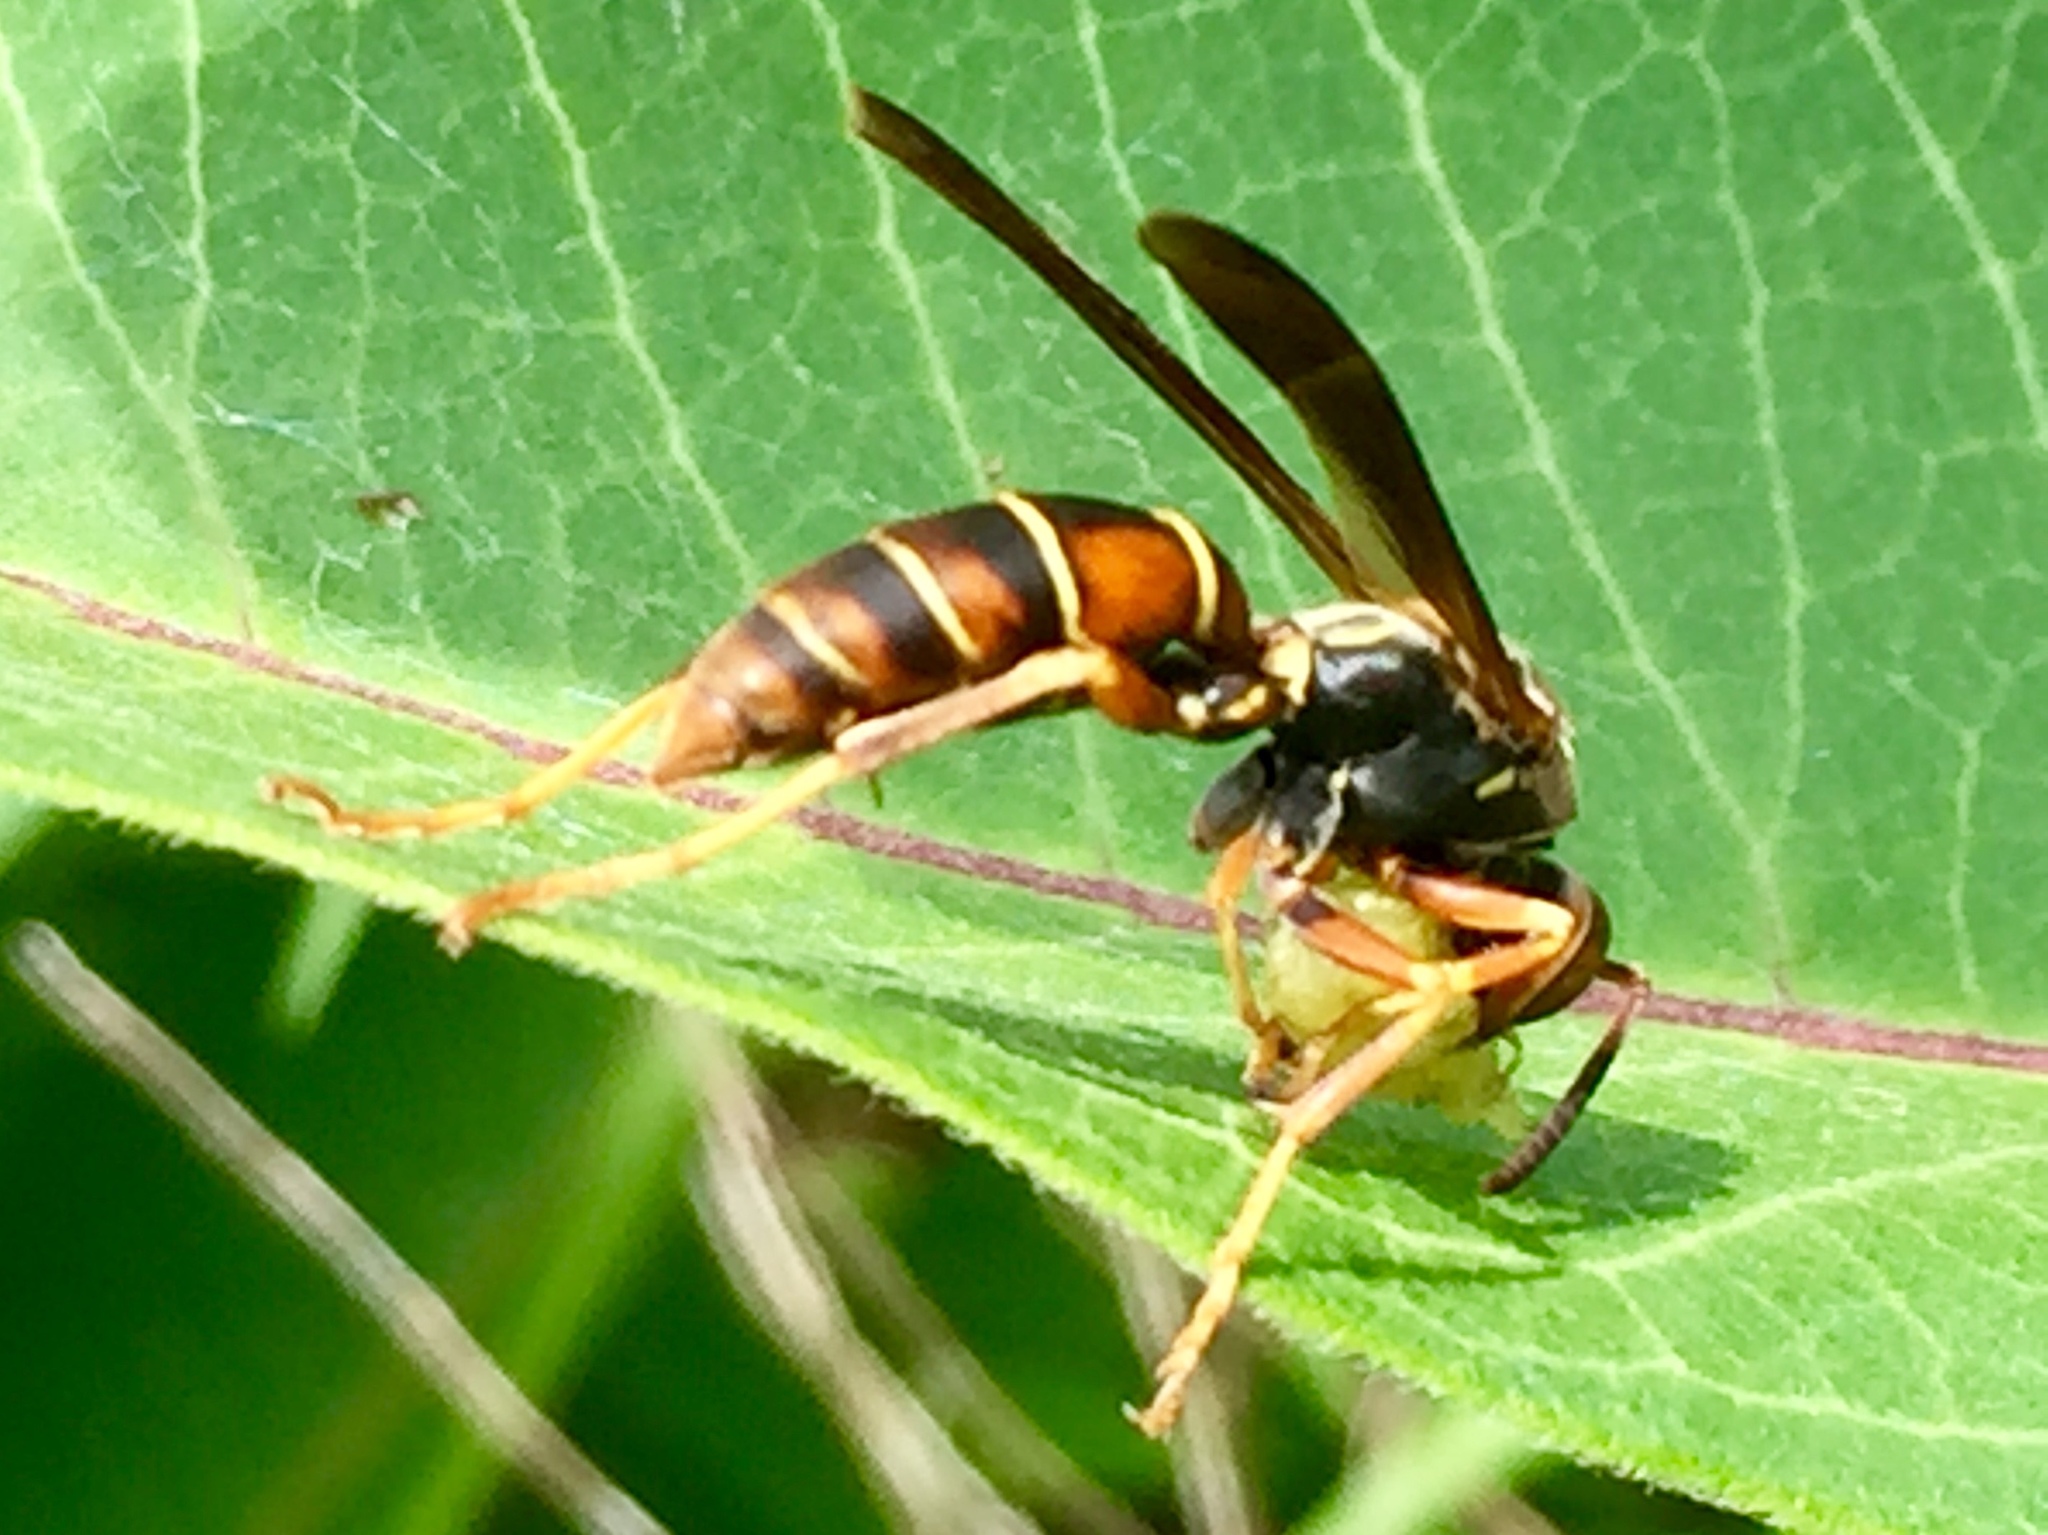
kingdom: Animalia
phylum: Arthropoda
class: Insecta
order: Hymenoptera
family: Eumenidae
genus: Polistes
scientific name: Polistes fuscatus
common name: Dark paper wasp
